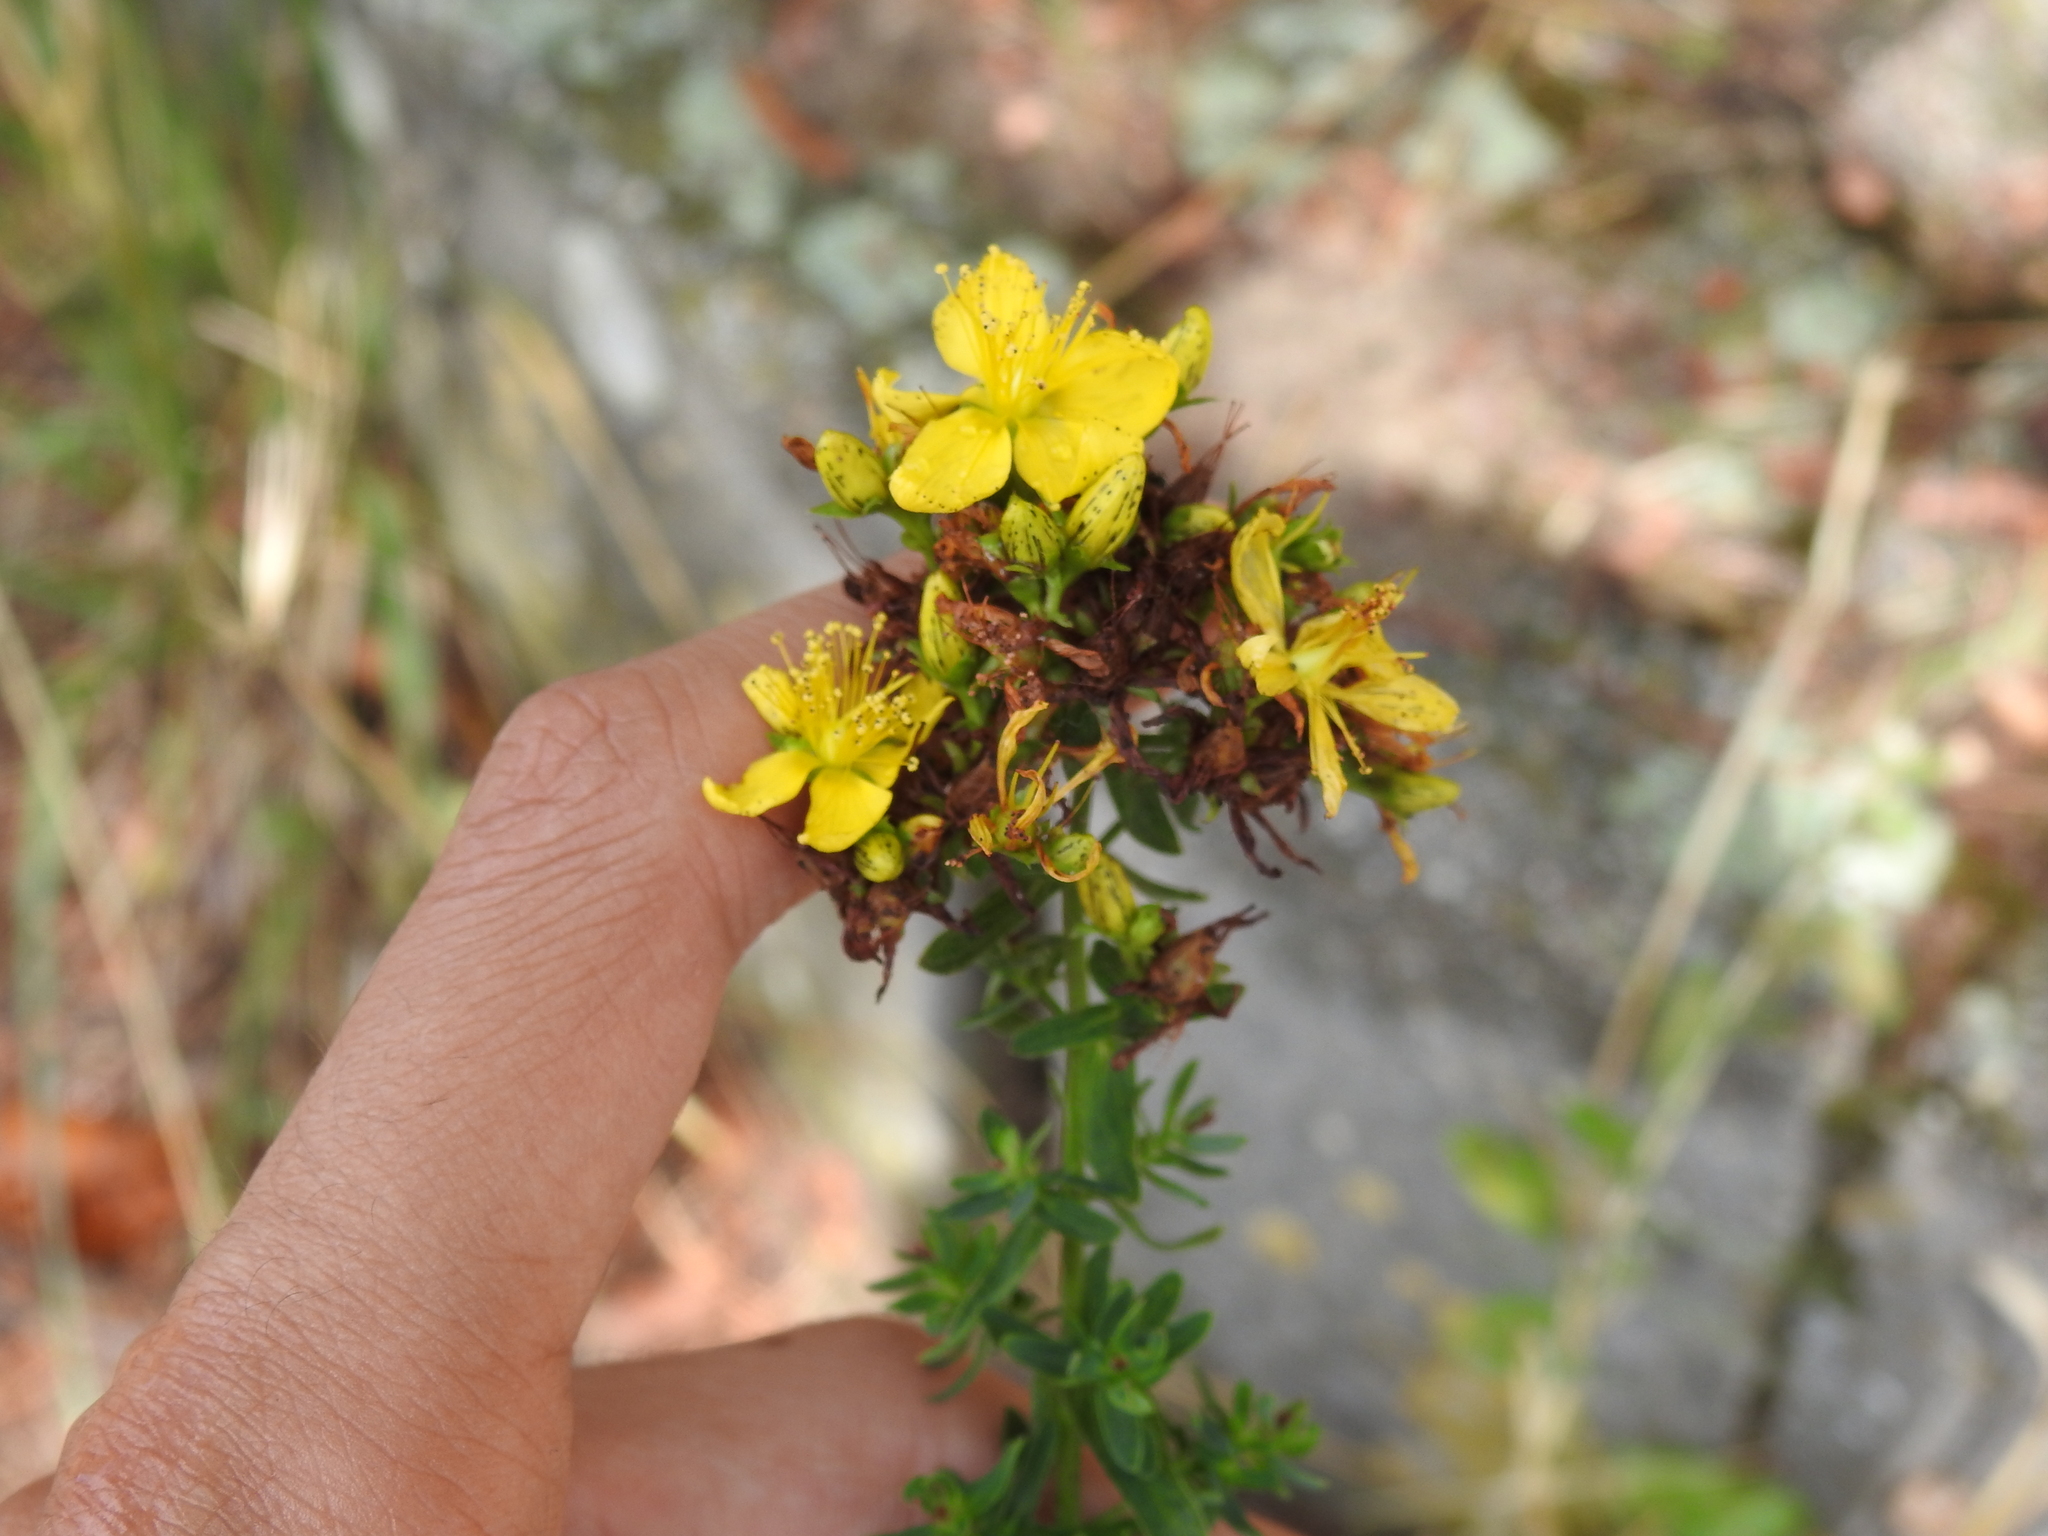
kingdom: Plantae
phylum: Tracheophyta
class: Magnoliopsida
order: Malpighiales
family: Hypericaceae
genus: Hypericum
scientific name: Hypericum perforatum
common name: Common st. johnswort
